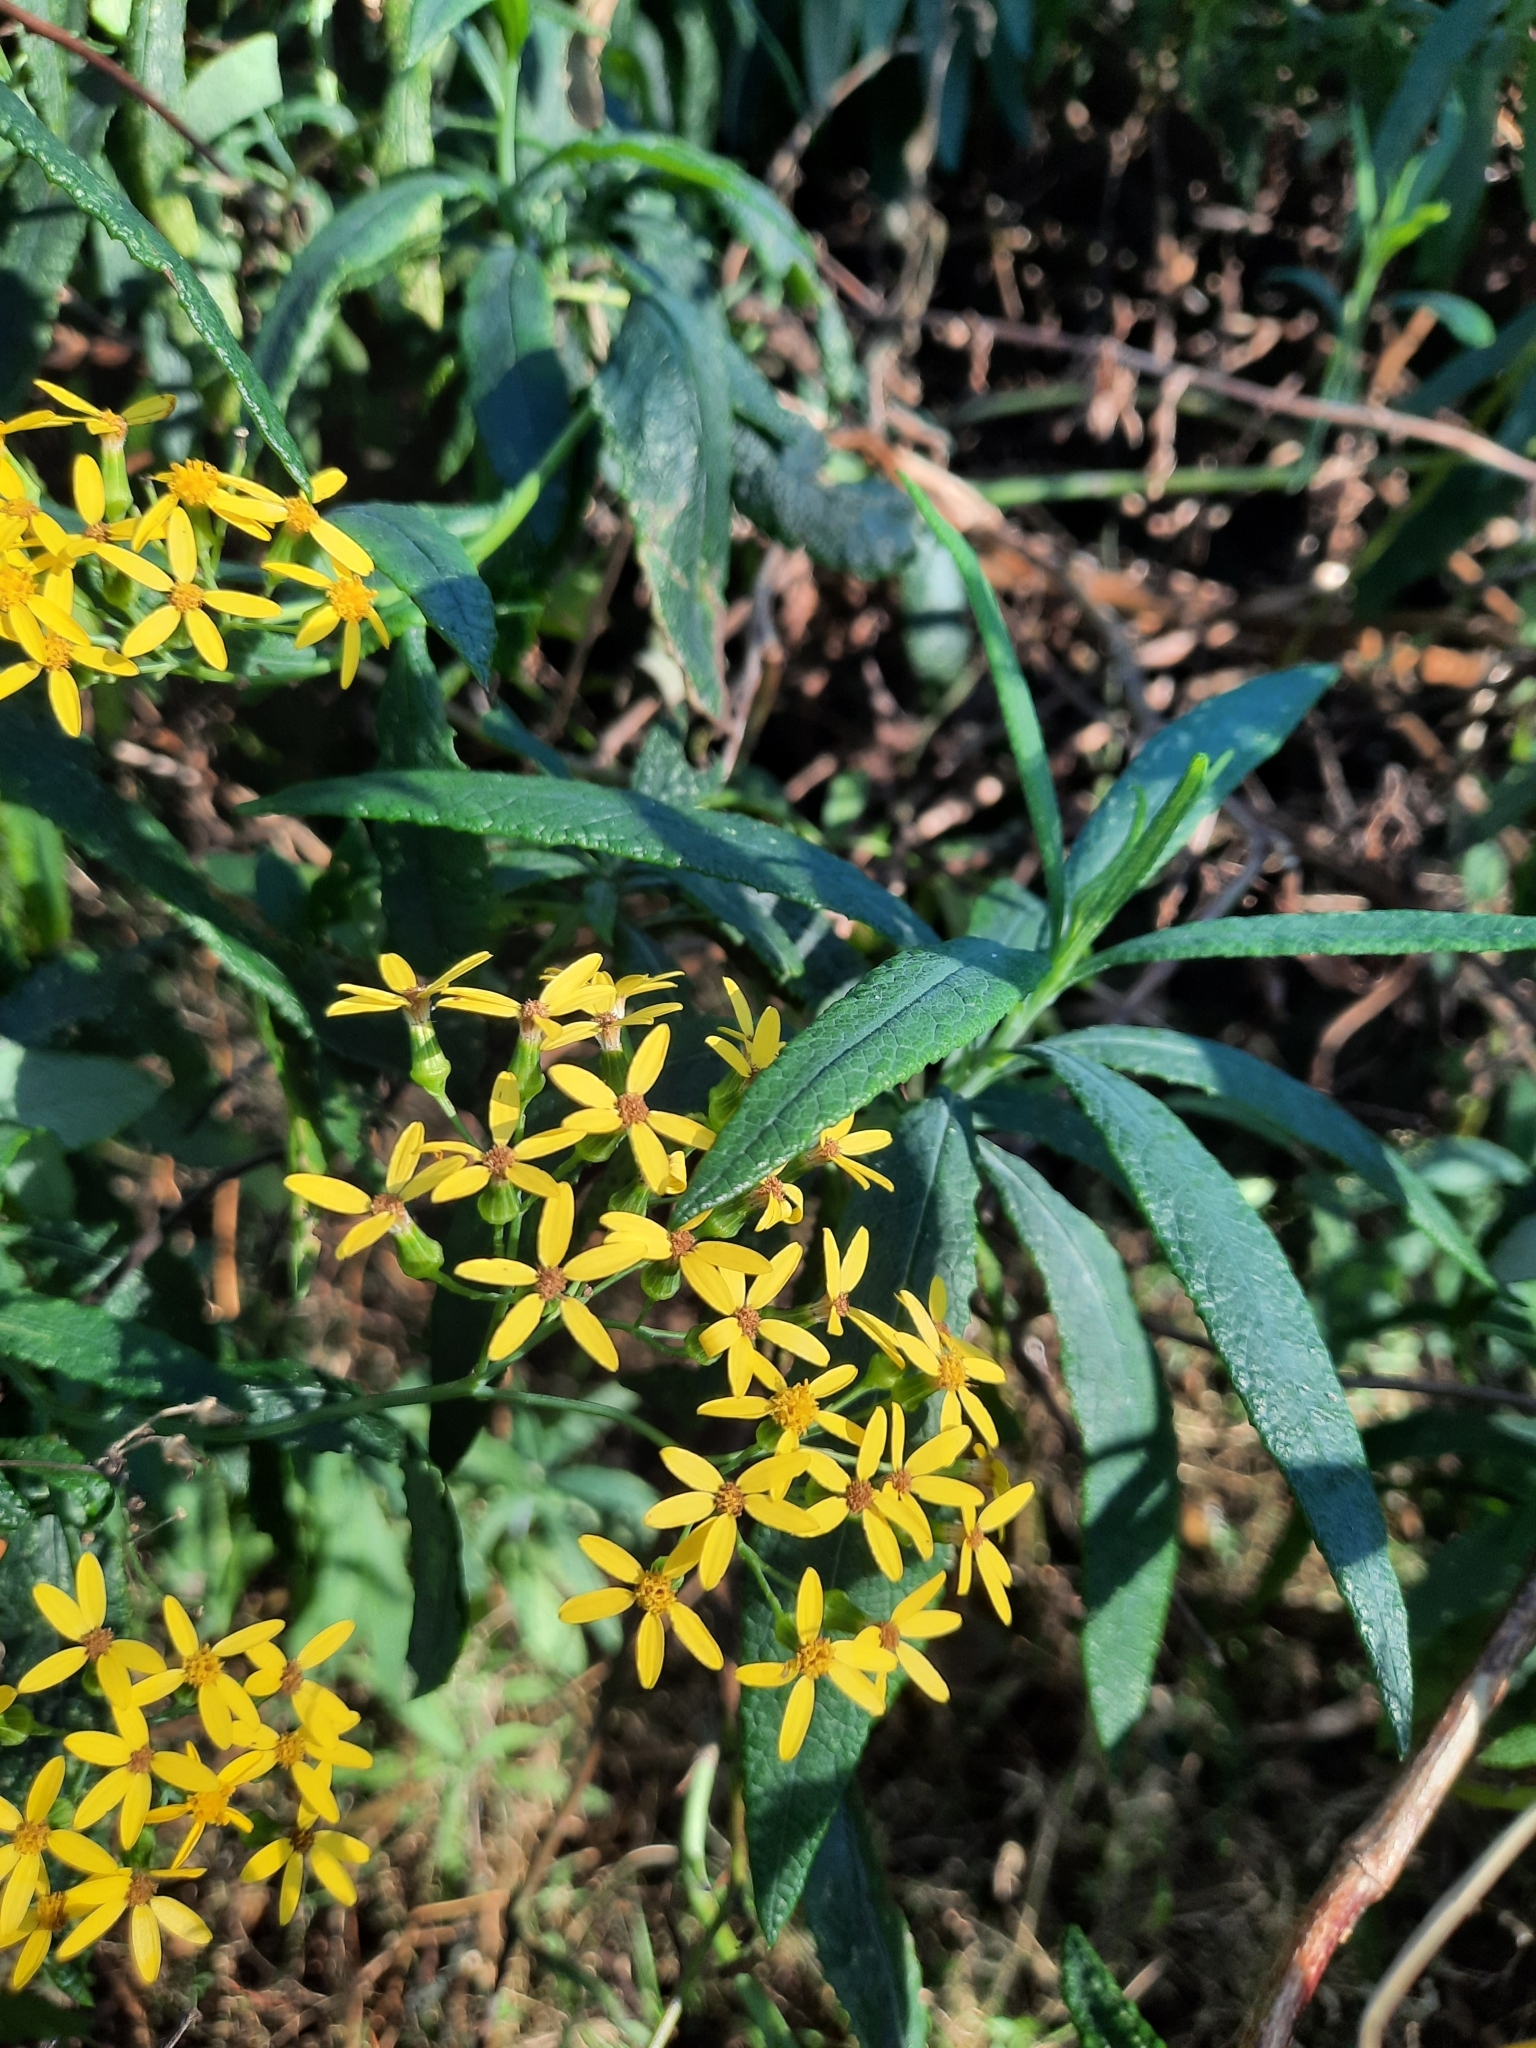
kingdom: Plantae
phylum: Tracheophyta
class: Magnoliopsida
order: Asterales
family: Asteraceae
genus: Senecio
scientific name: Senecio linearifolius
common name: Fireweed groundsel
